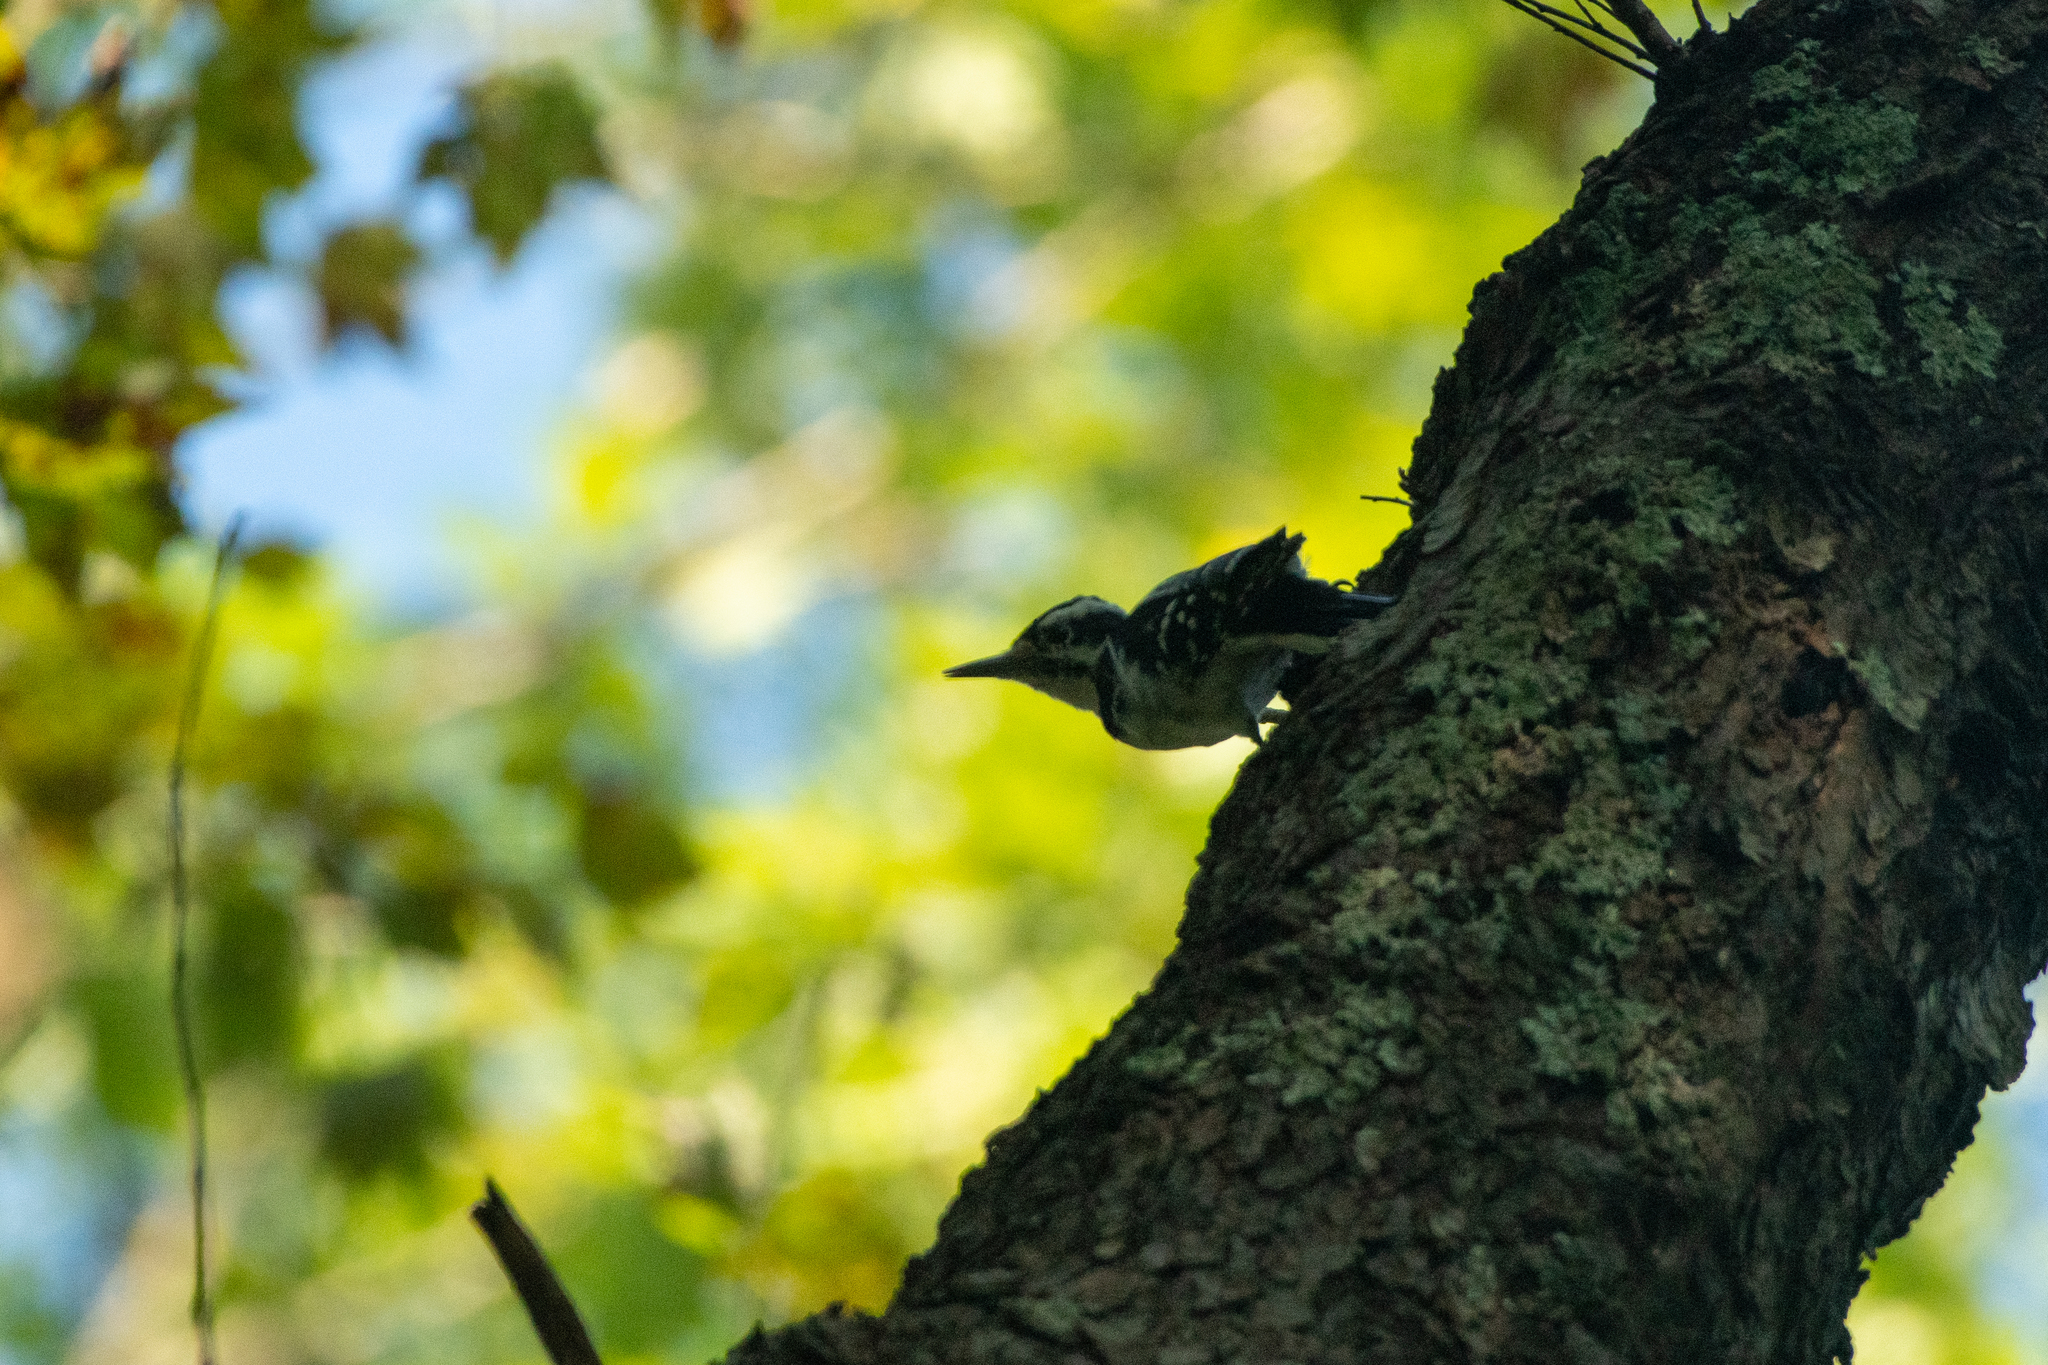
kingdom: Animalia
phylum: Chordata
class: Aves
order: Piciformes
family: Picidae
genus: Leuconotopicus
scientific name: Leuconotopicus villosus
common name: Hairy woodpecker
